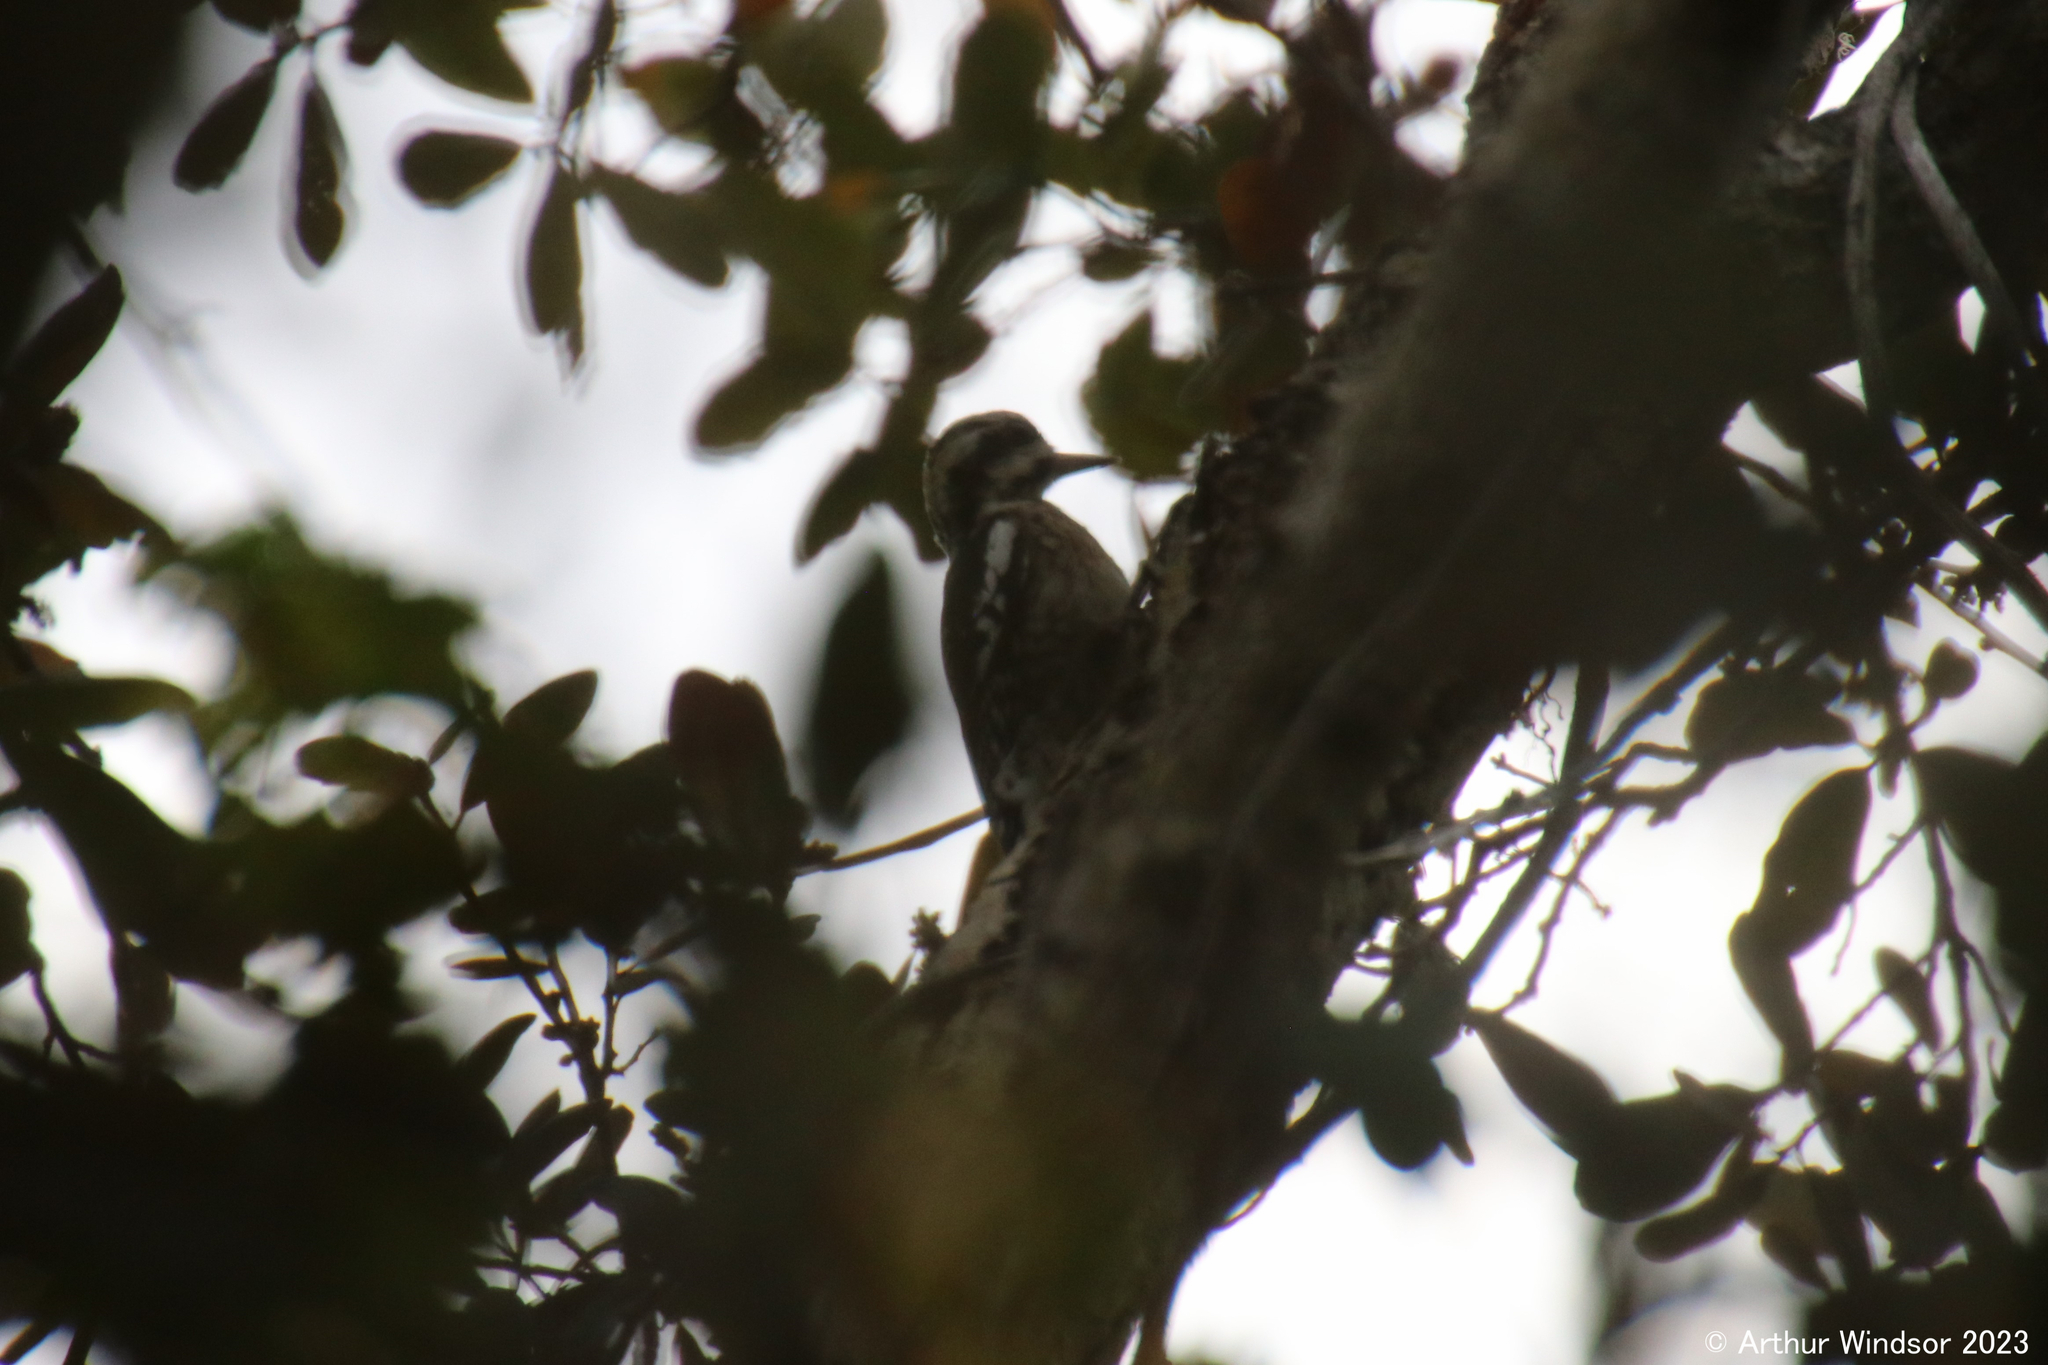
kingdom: Animalia
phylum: Chordata
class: Aves
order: Piciformes
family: Picidae
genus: Sphyrapicus
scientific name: Sphyrapicus varius
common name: Yellow-bellied sapsucker
